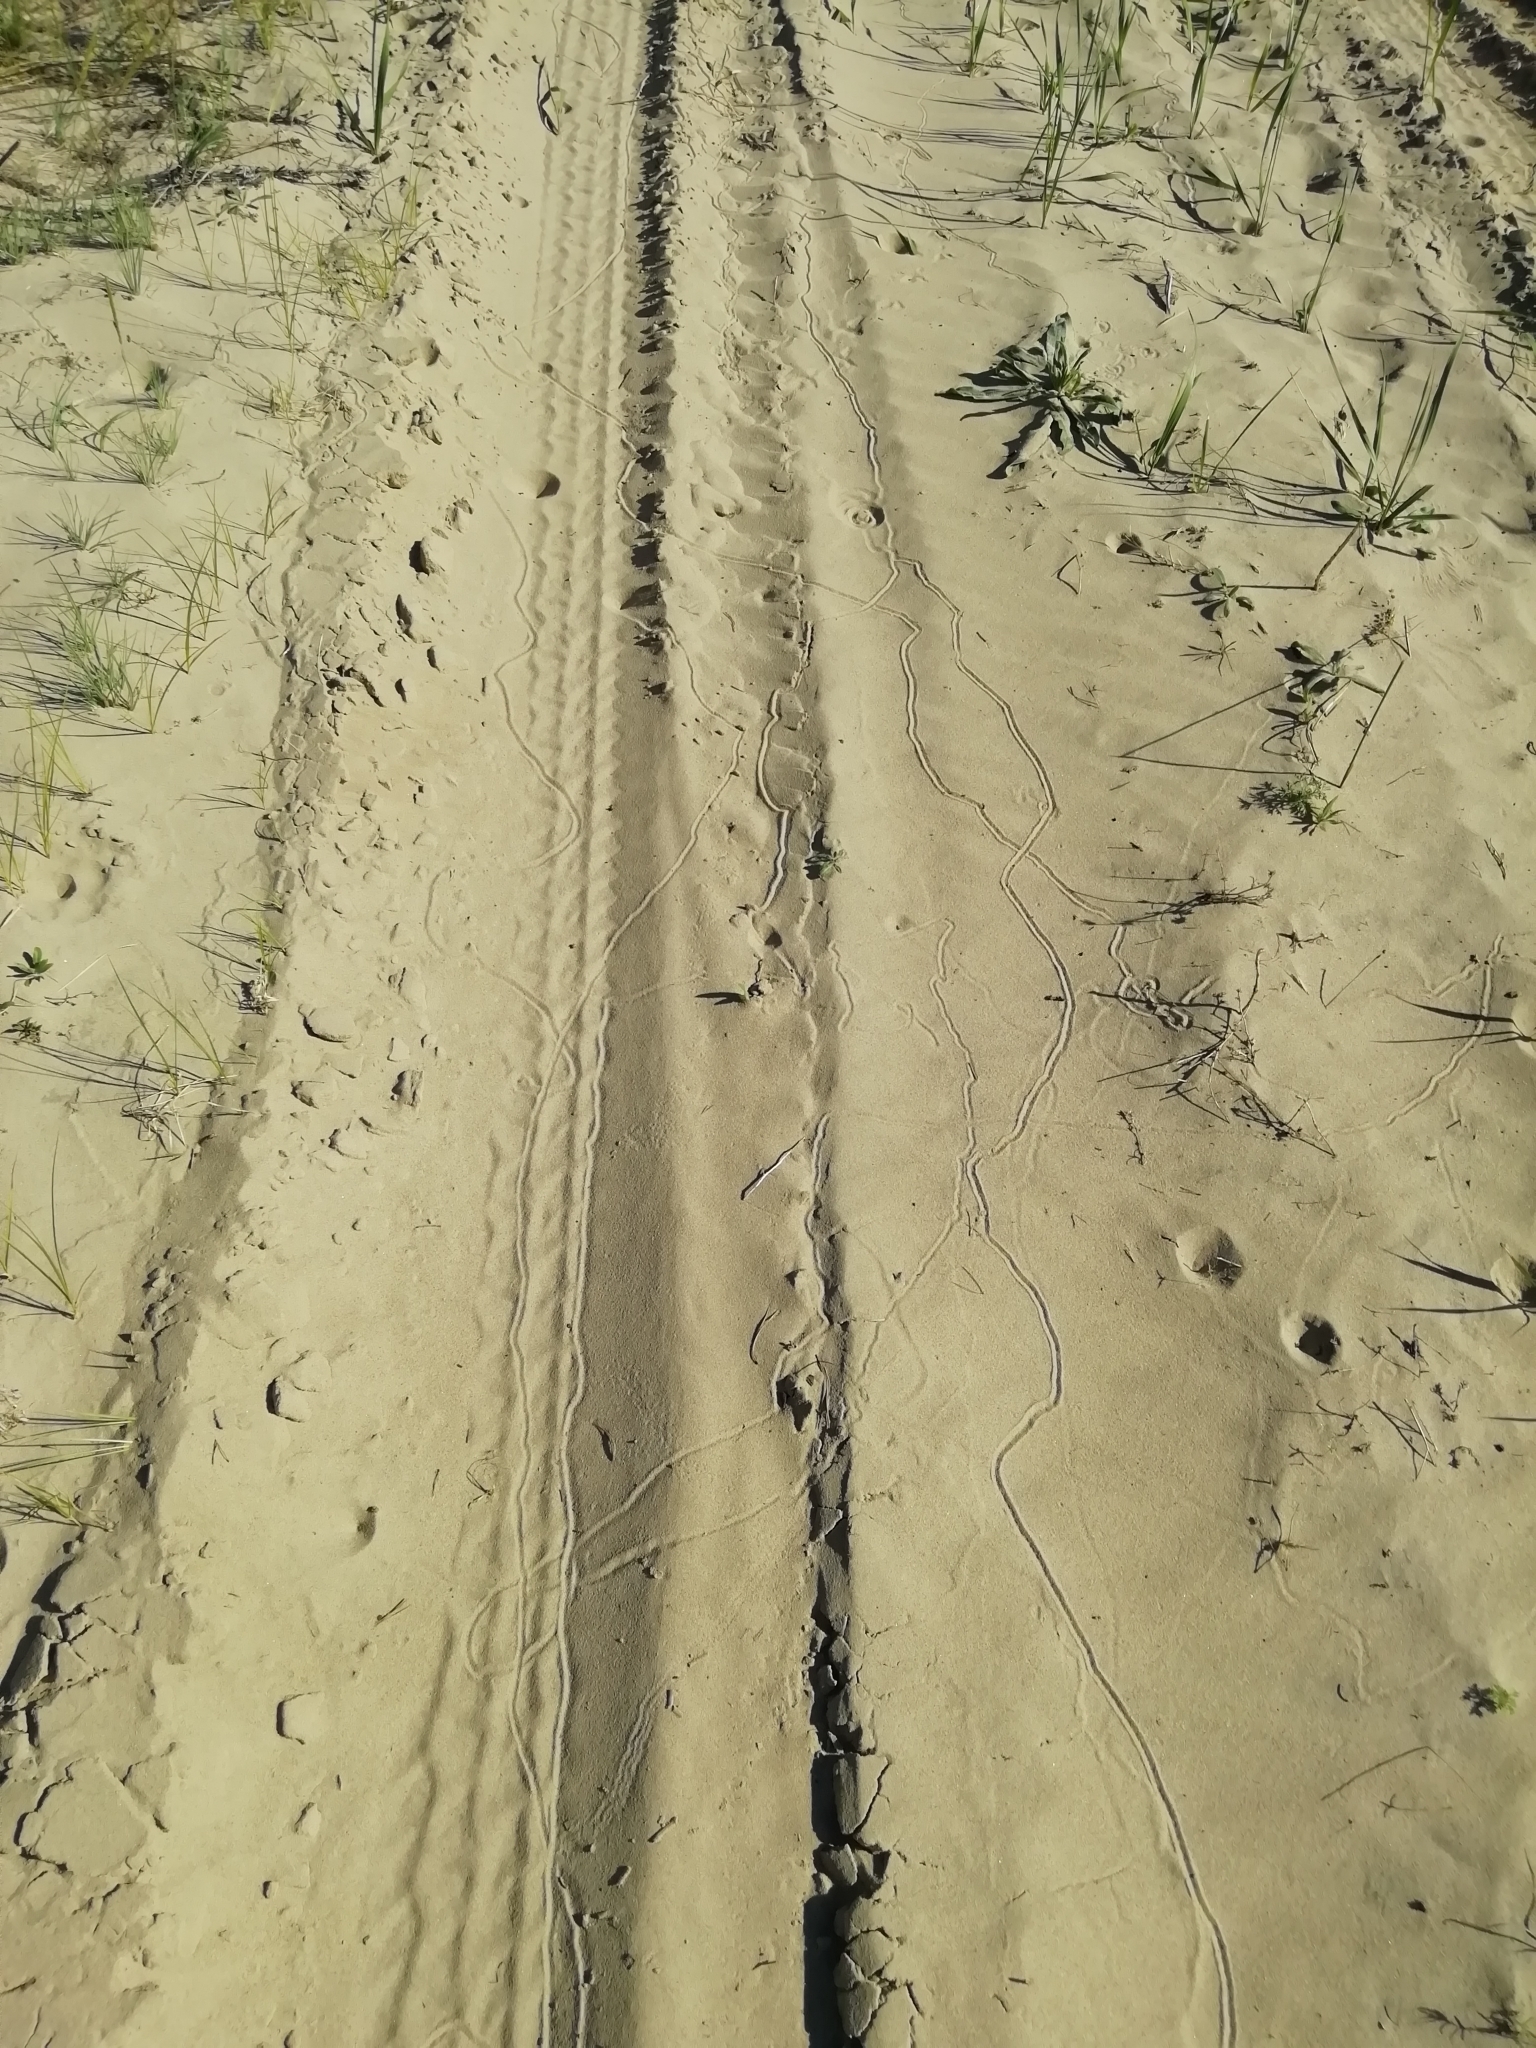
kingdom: Animalia
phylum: Arthropoda
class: Insecta
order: Neuroptera
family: Myrmeleontidae
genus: Myrmeleon
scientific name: Myrmeleon formicarius
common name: Ant-lion
